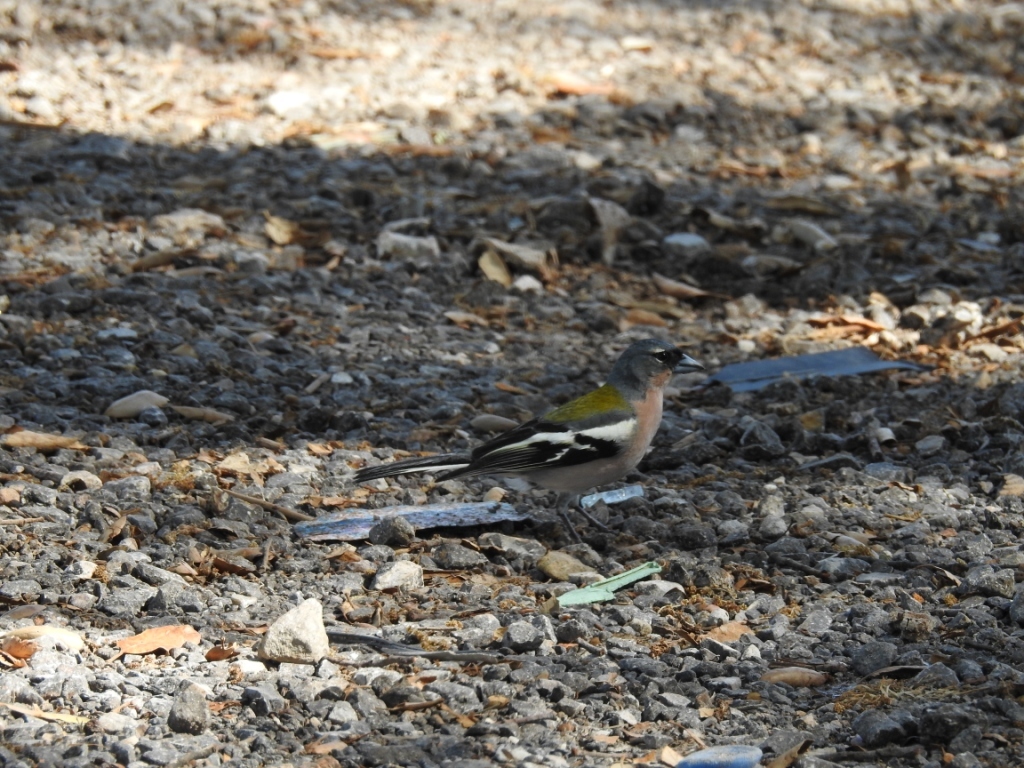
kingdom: Animalia
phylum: Chordata
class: Aves
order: Passeriformes
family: Fringillidae
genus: Fringilla
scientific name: Fringilla spodiogenys
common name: African chaffinch
